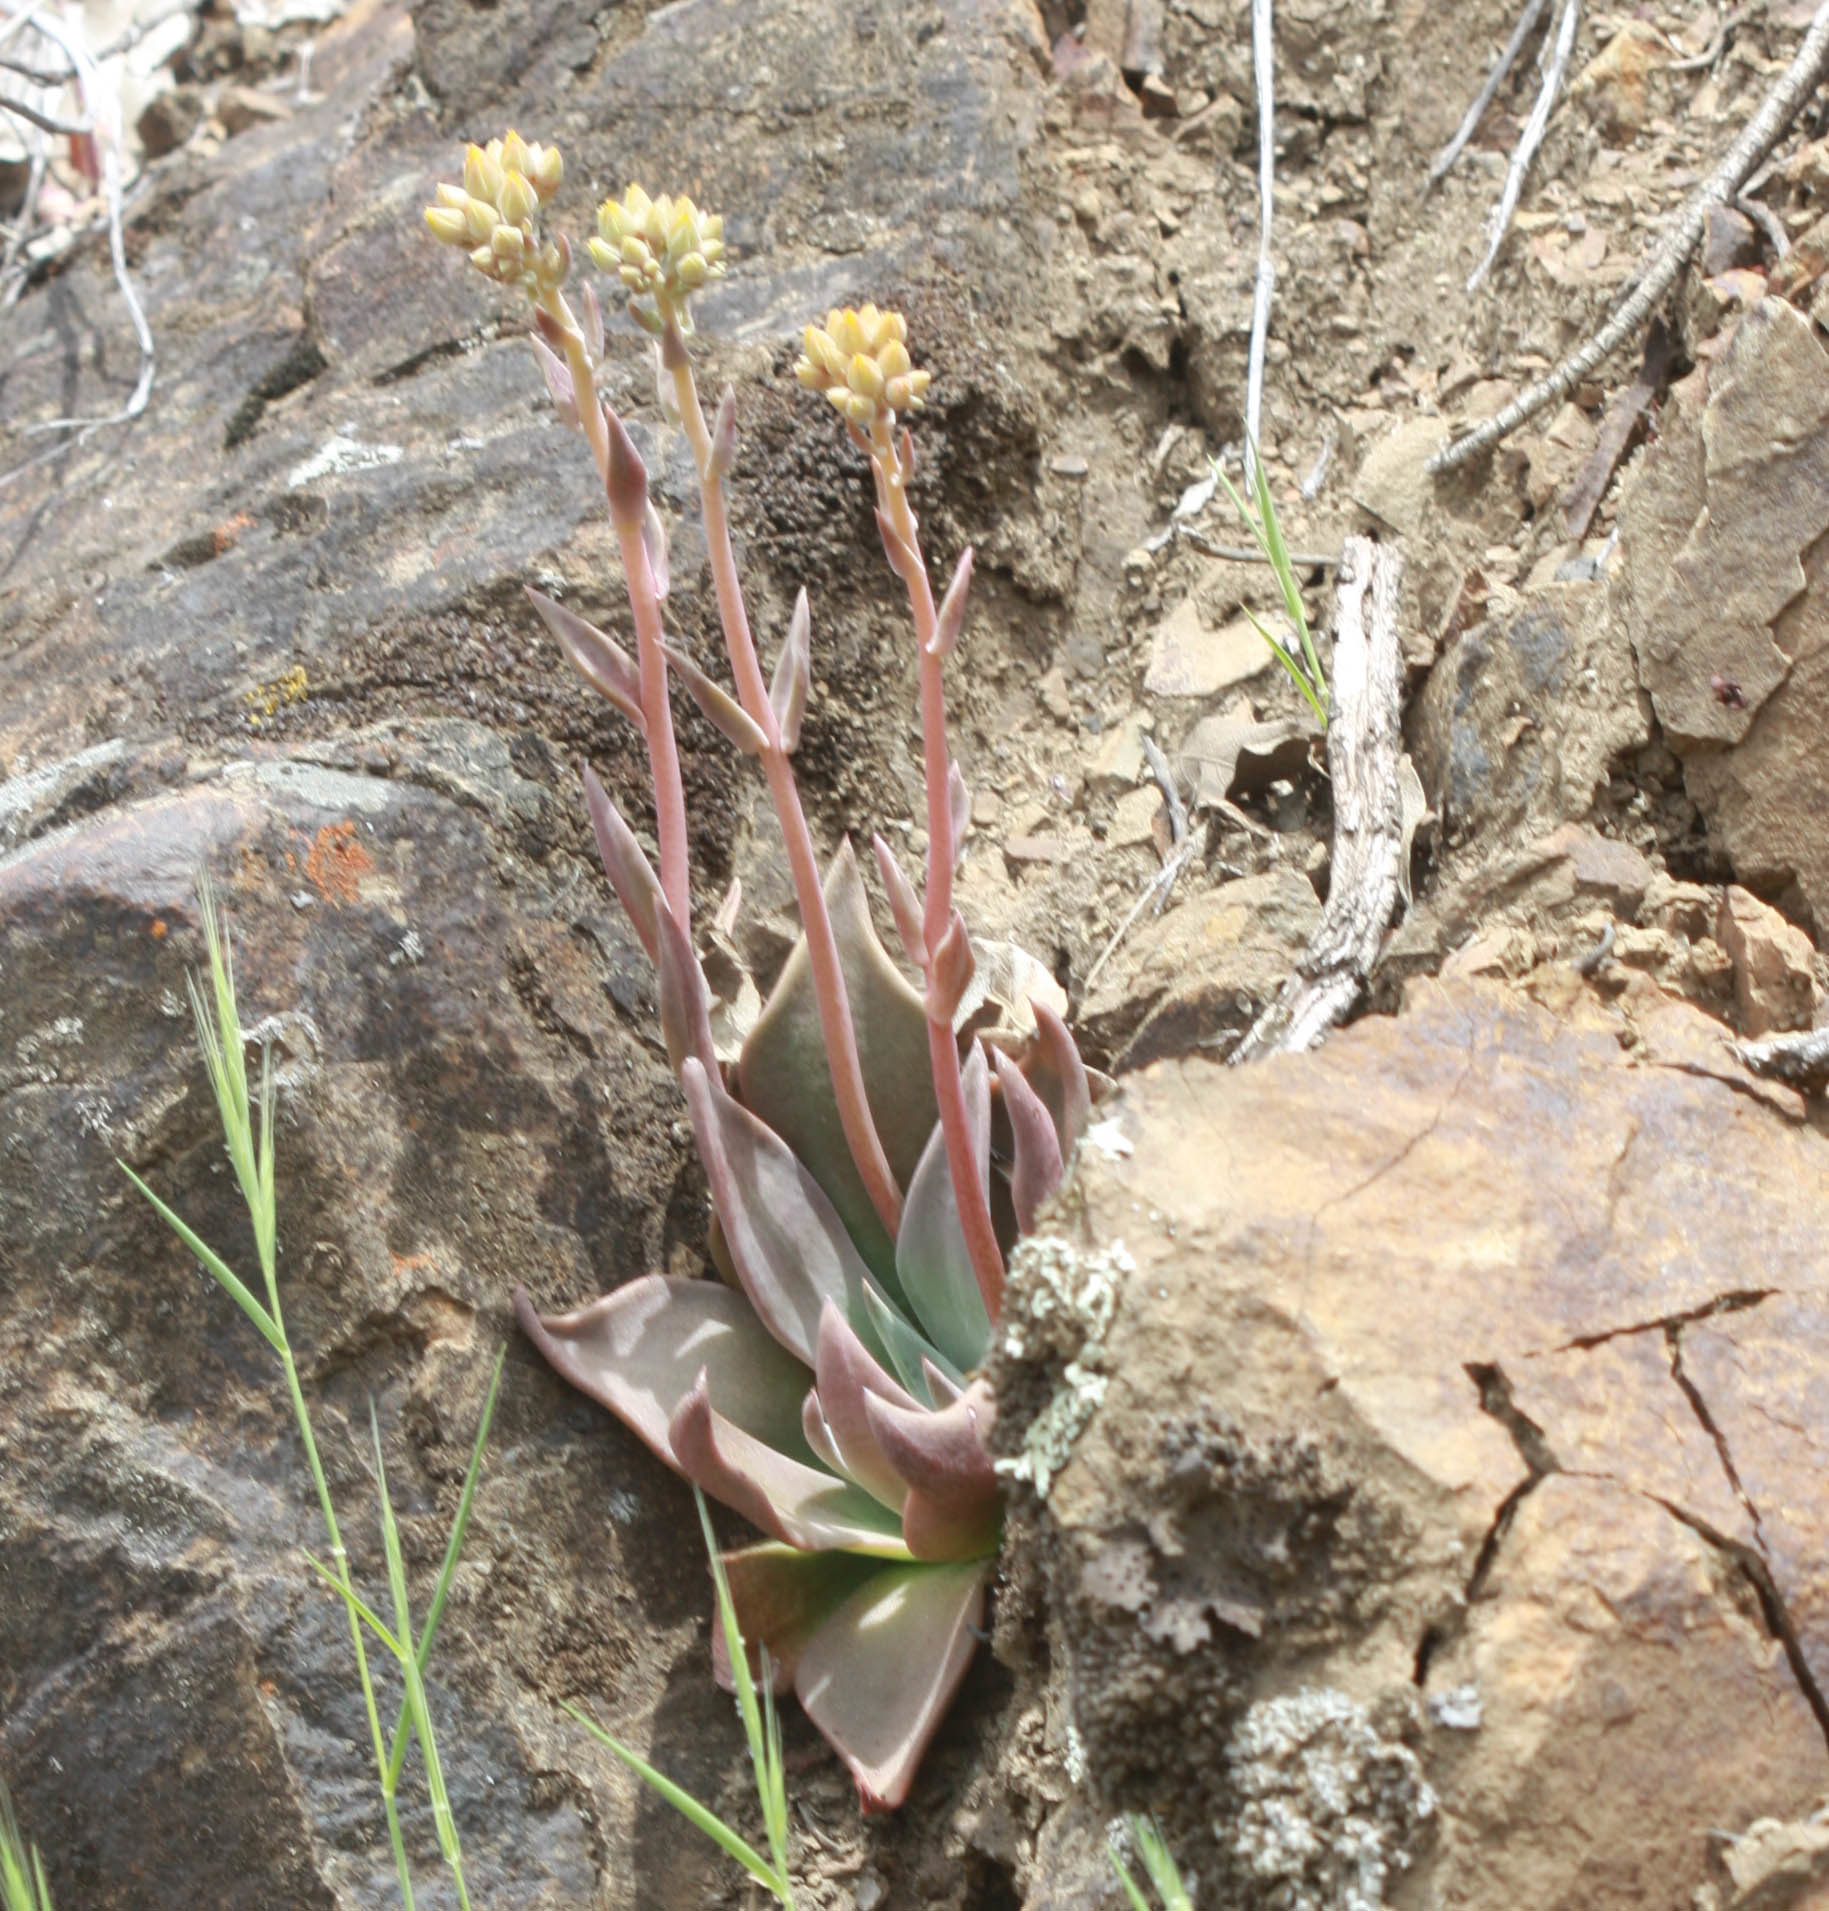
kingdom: Plantae
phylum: Tracheophyta
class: Magnoliopsida
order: Saxifragales
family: Crassulaceae
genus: Dudleya
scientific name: Dudleya cymosa
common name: Canyon dudleya
